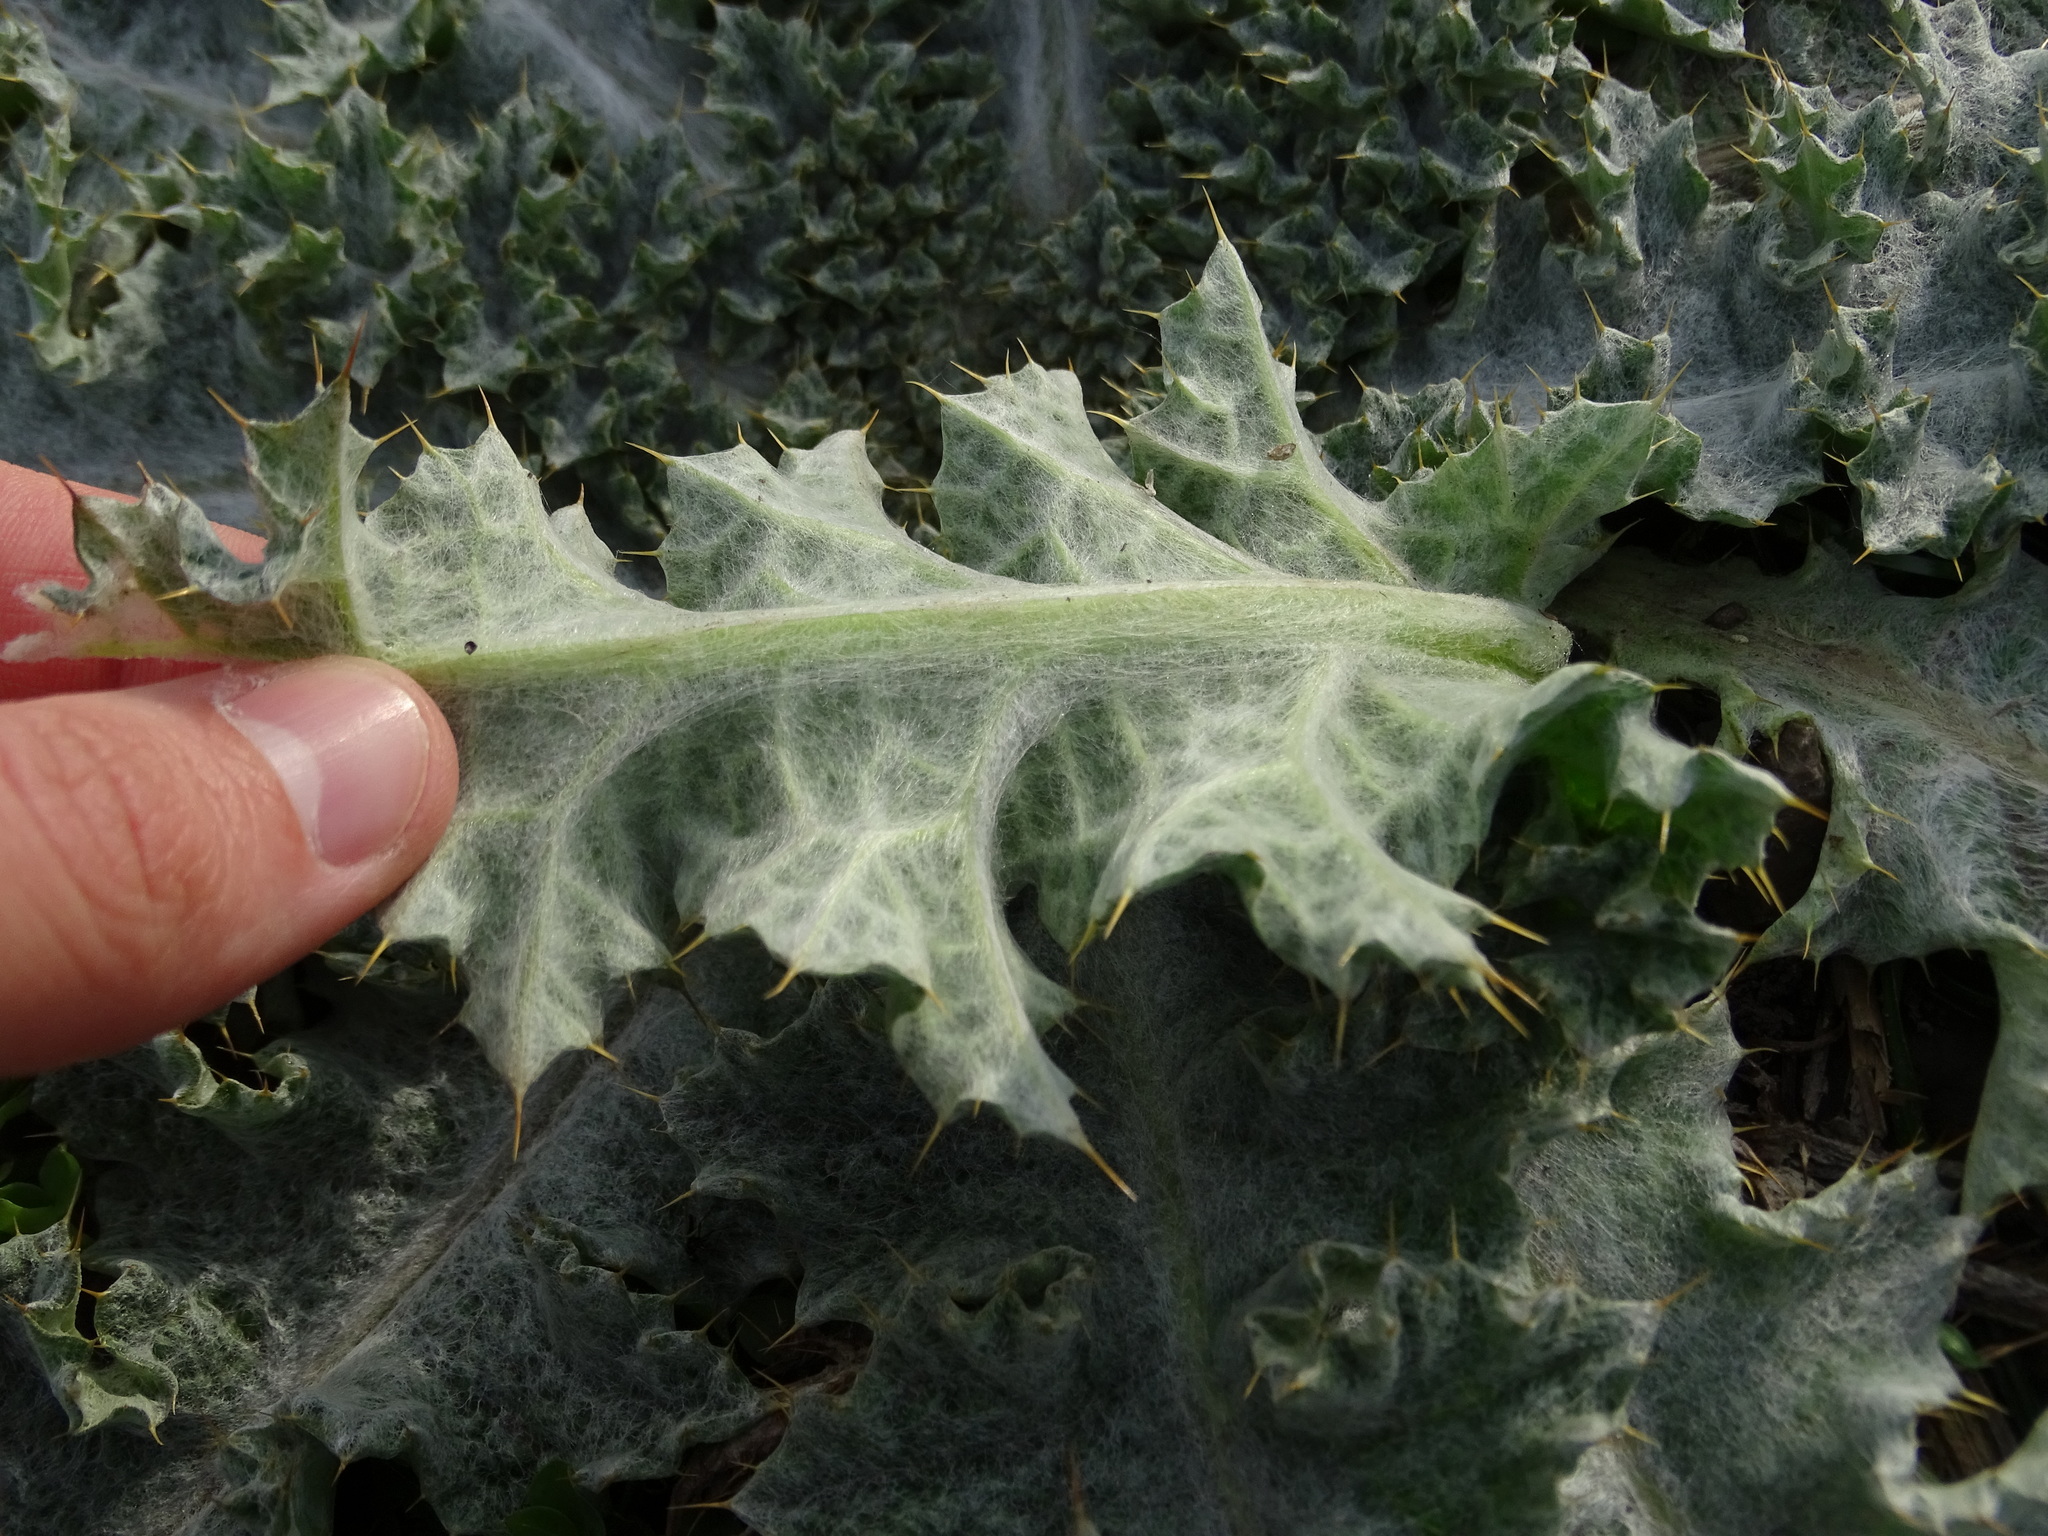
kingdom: Plantae
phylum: Tracheophyta
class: Magnoliopsida
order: Asterales
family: Asteraceae
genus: Onopordum
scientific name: Onopordum acanthium
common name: Scotch thistle
